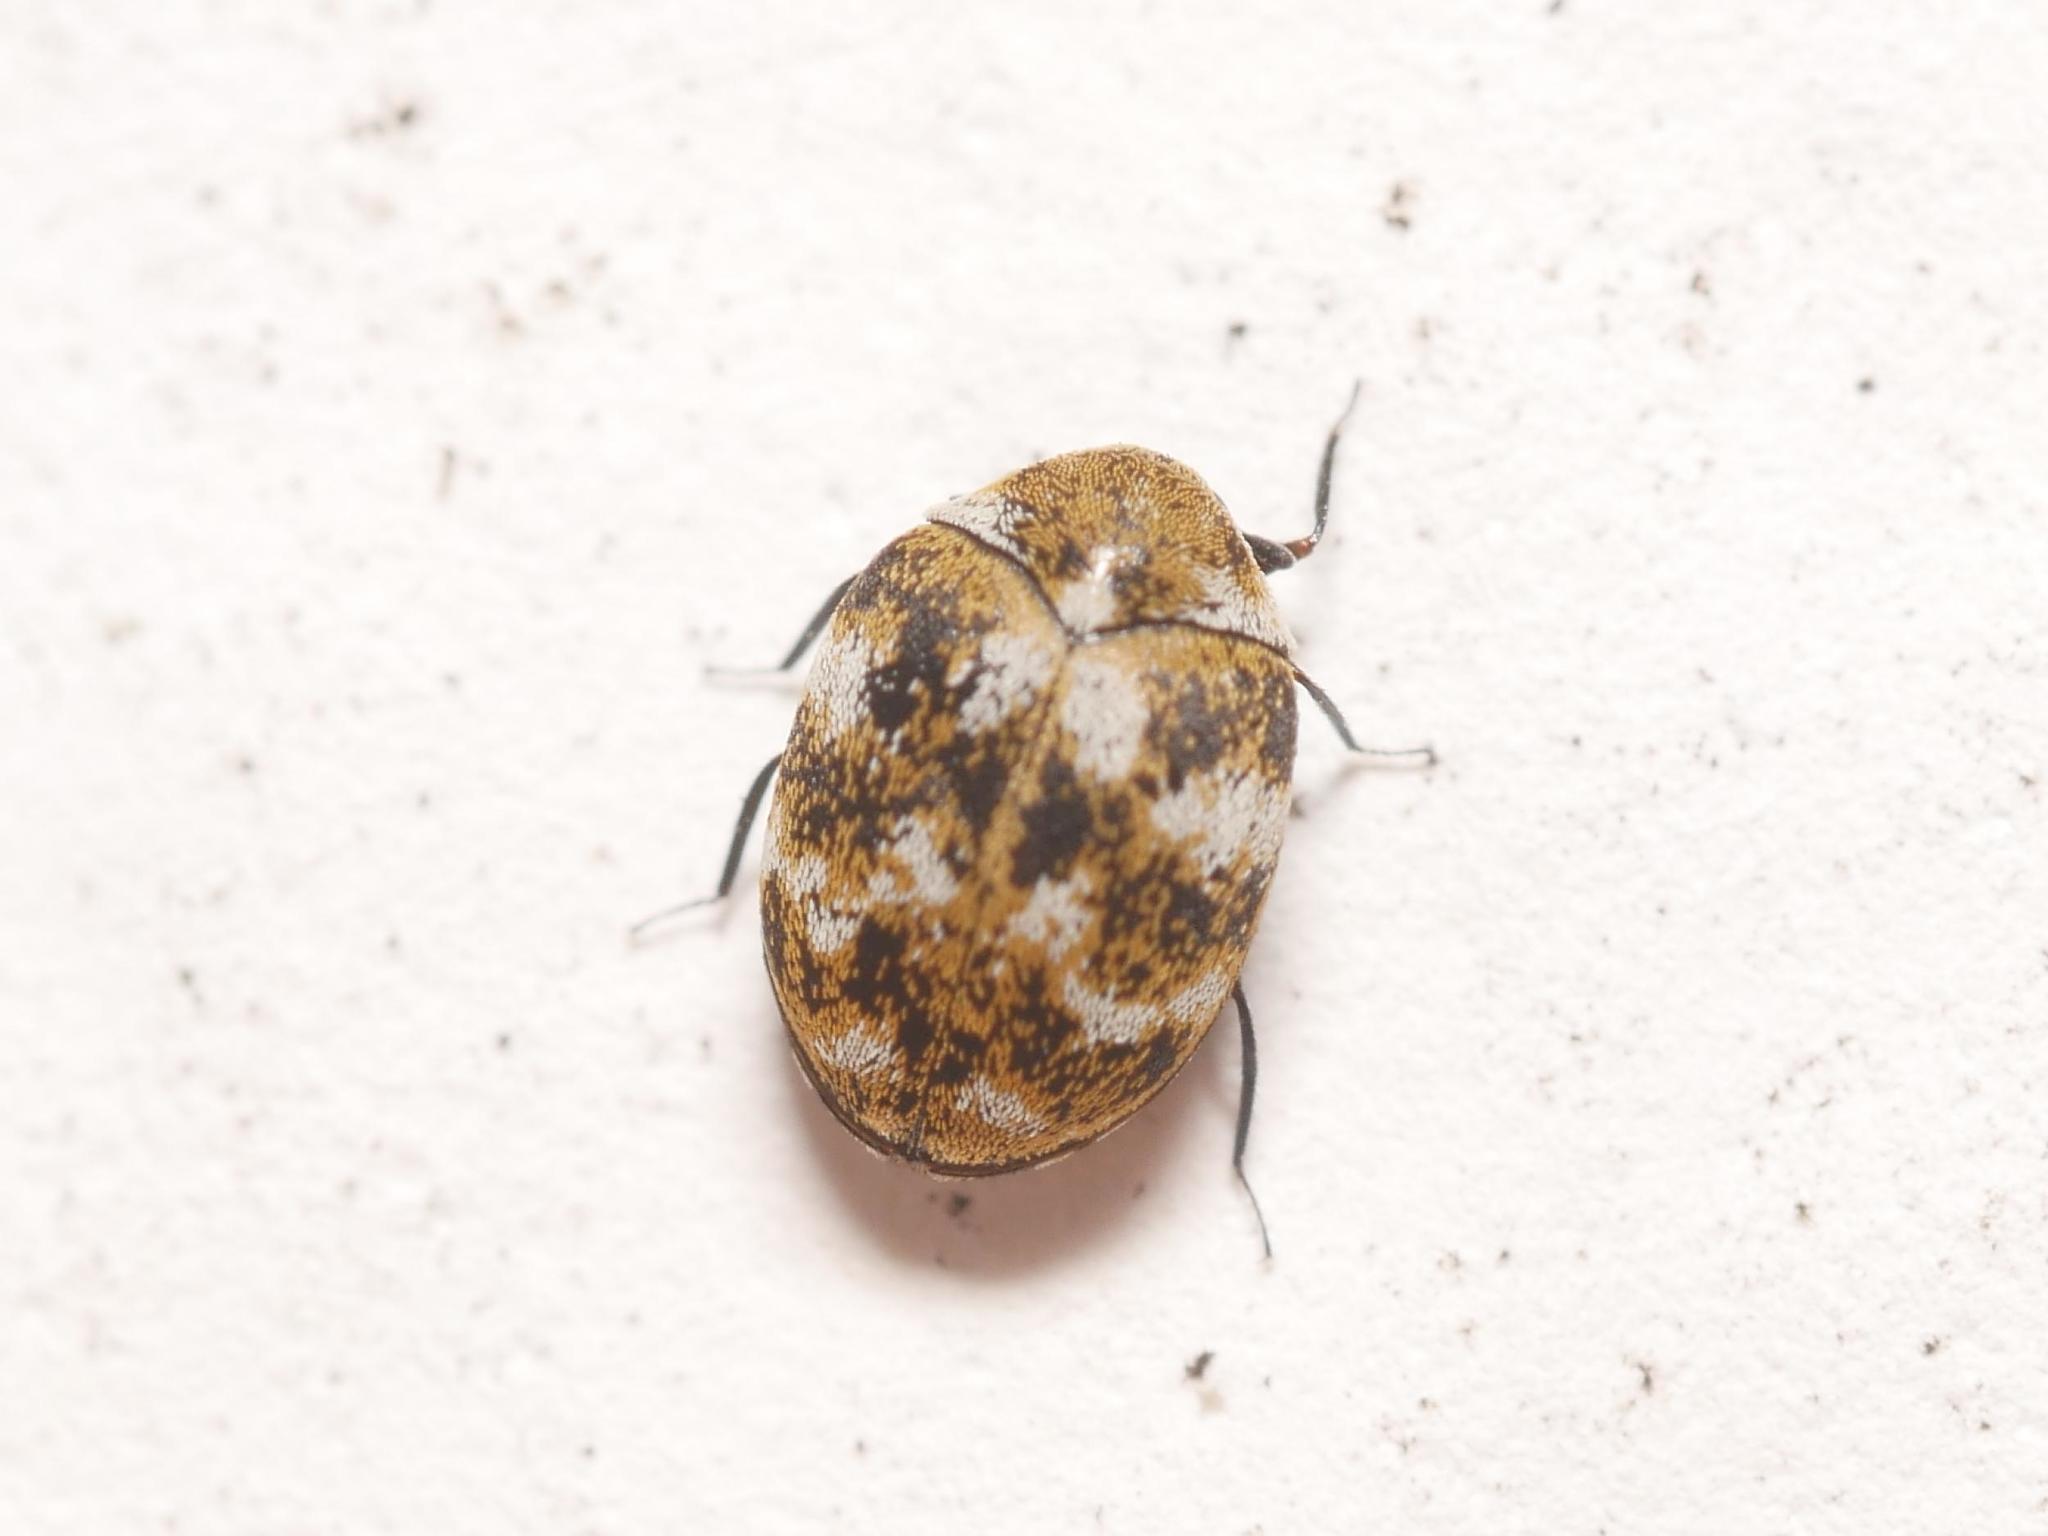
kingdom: Animalia
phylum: Arthropoda
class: Insecta
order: Coleoptera
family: Dermestidae
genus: Anthrenus
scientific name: Anthrenus verbasci
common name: Varied carpet beetle
